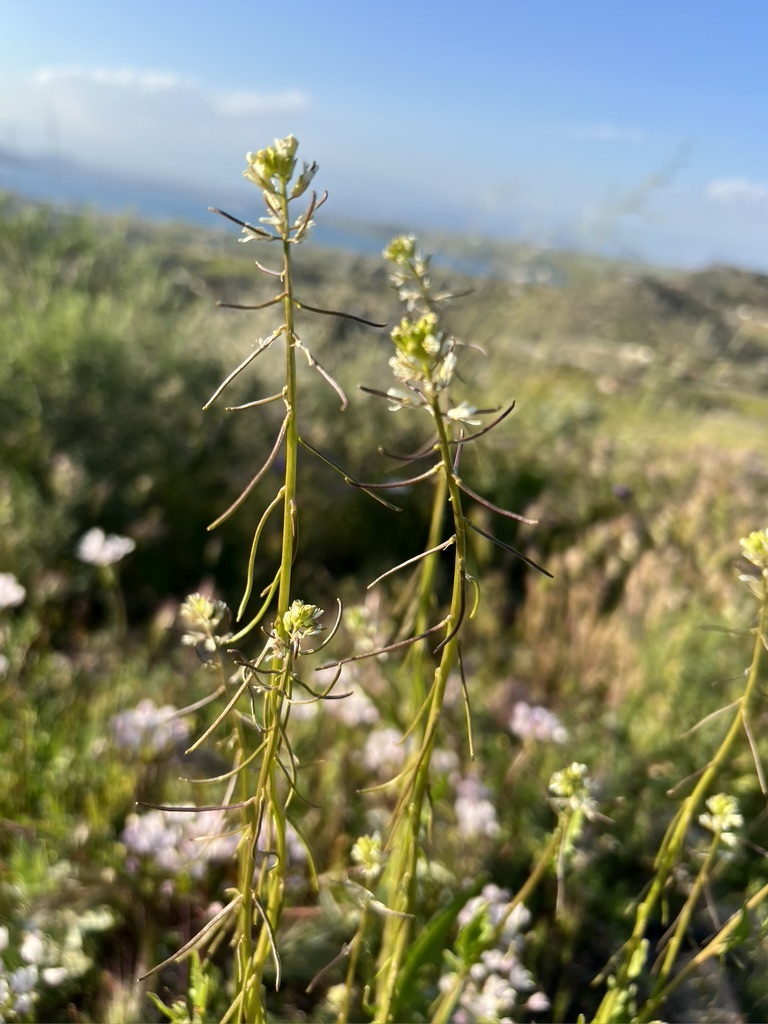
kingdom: Plantae
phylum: Tracheophyta
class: Magnoliopsida
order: Brassicales
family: Brassicaceae
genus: Streptanthus
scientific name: Streptanthus lasiophyllus
